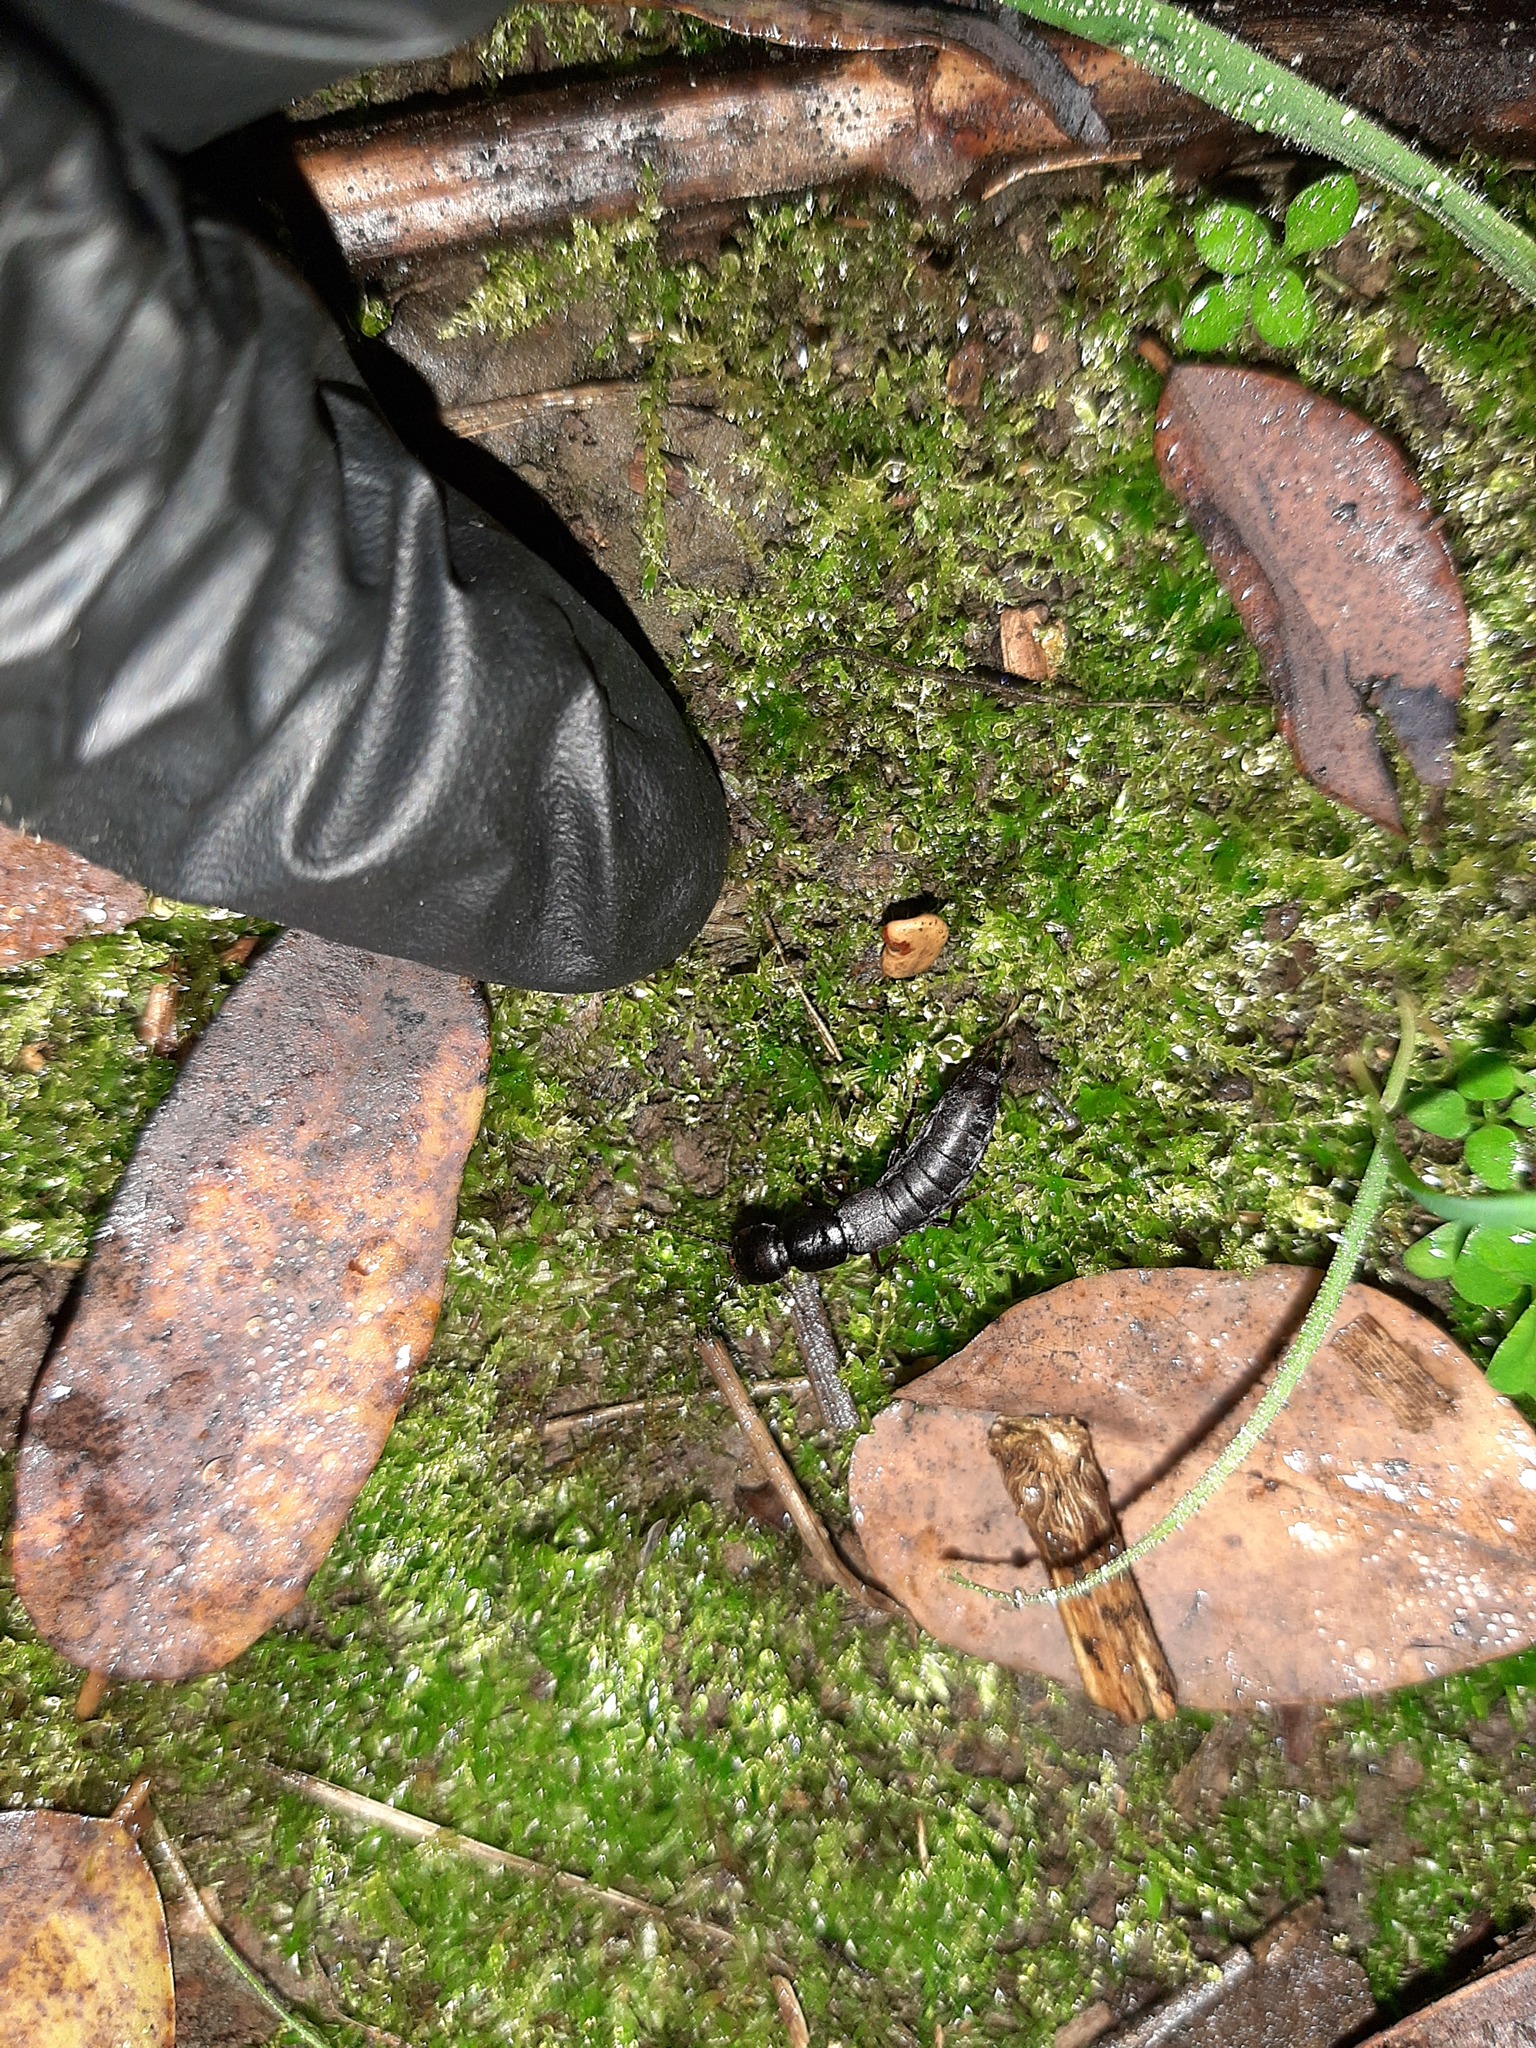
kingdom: Animalia
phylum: Arthropoda
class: Insecta
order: Coleoptera
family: Staphylinidae
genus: Ocypus
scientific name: Ocypus nitens
